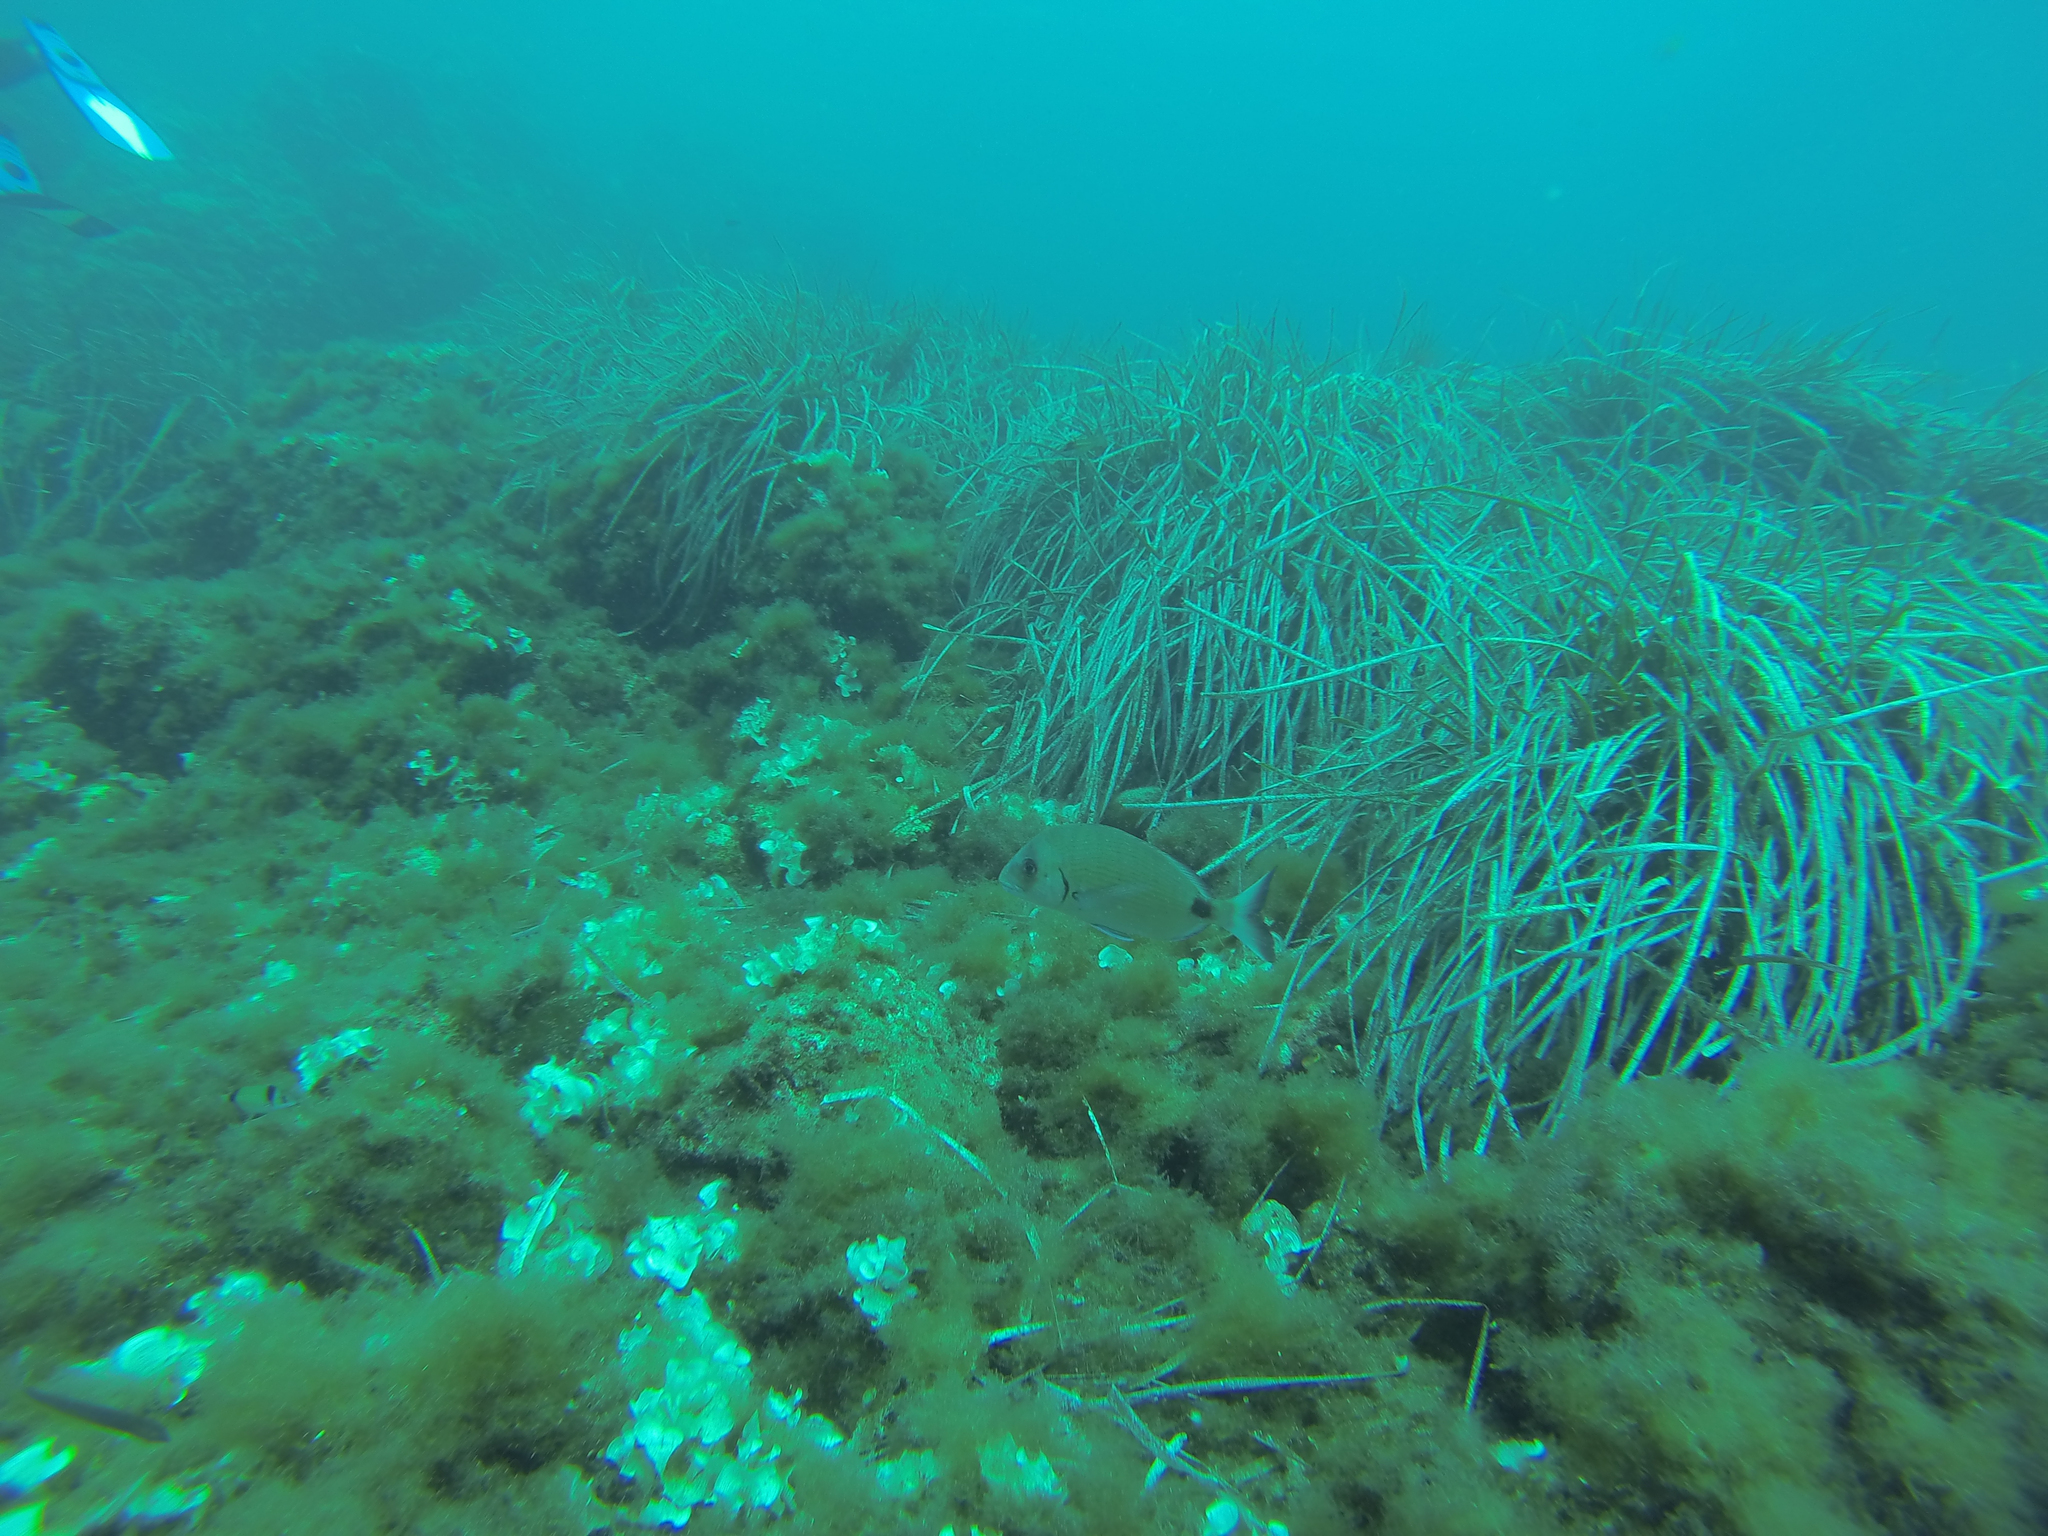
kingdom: Animalia
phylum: Chordata
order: Perciformes
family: Sparidae
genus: Diplodus
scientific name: Diplodus sargus
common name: White seabream
